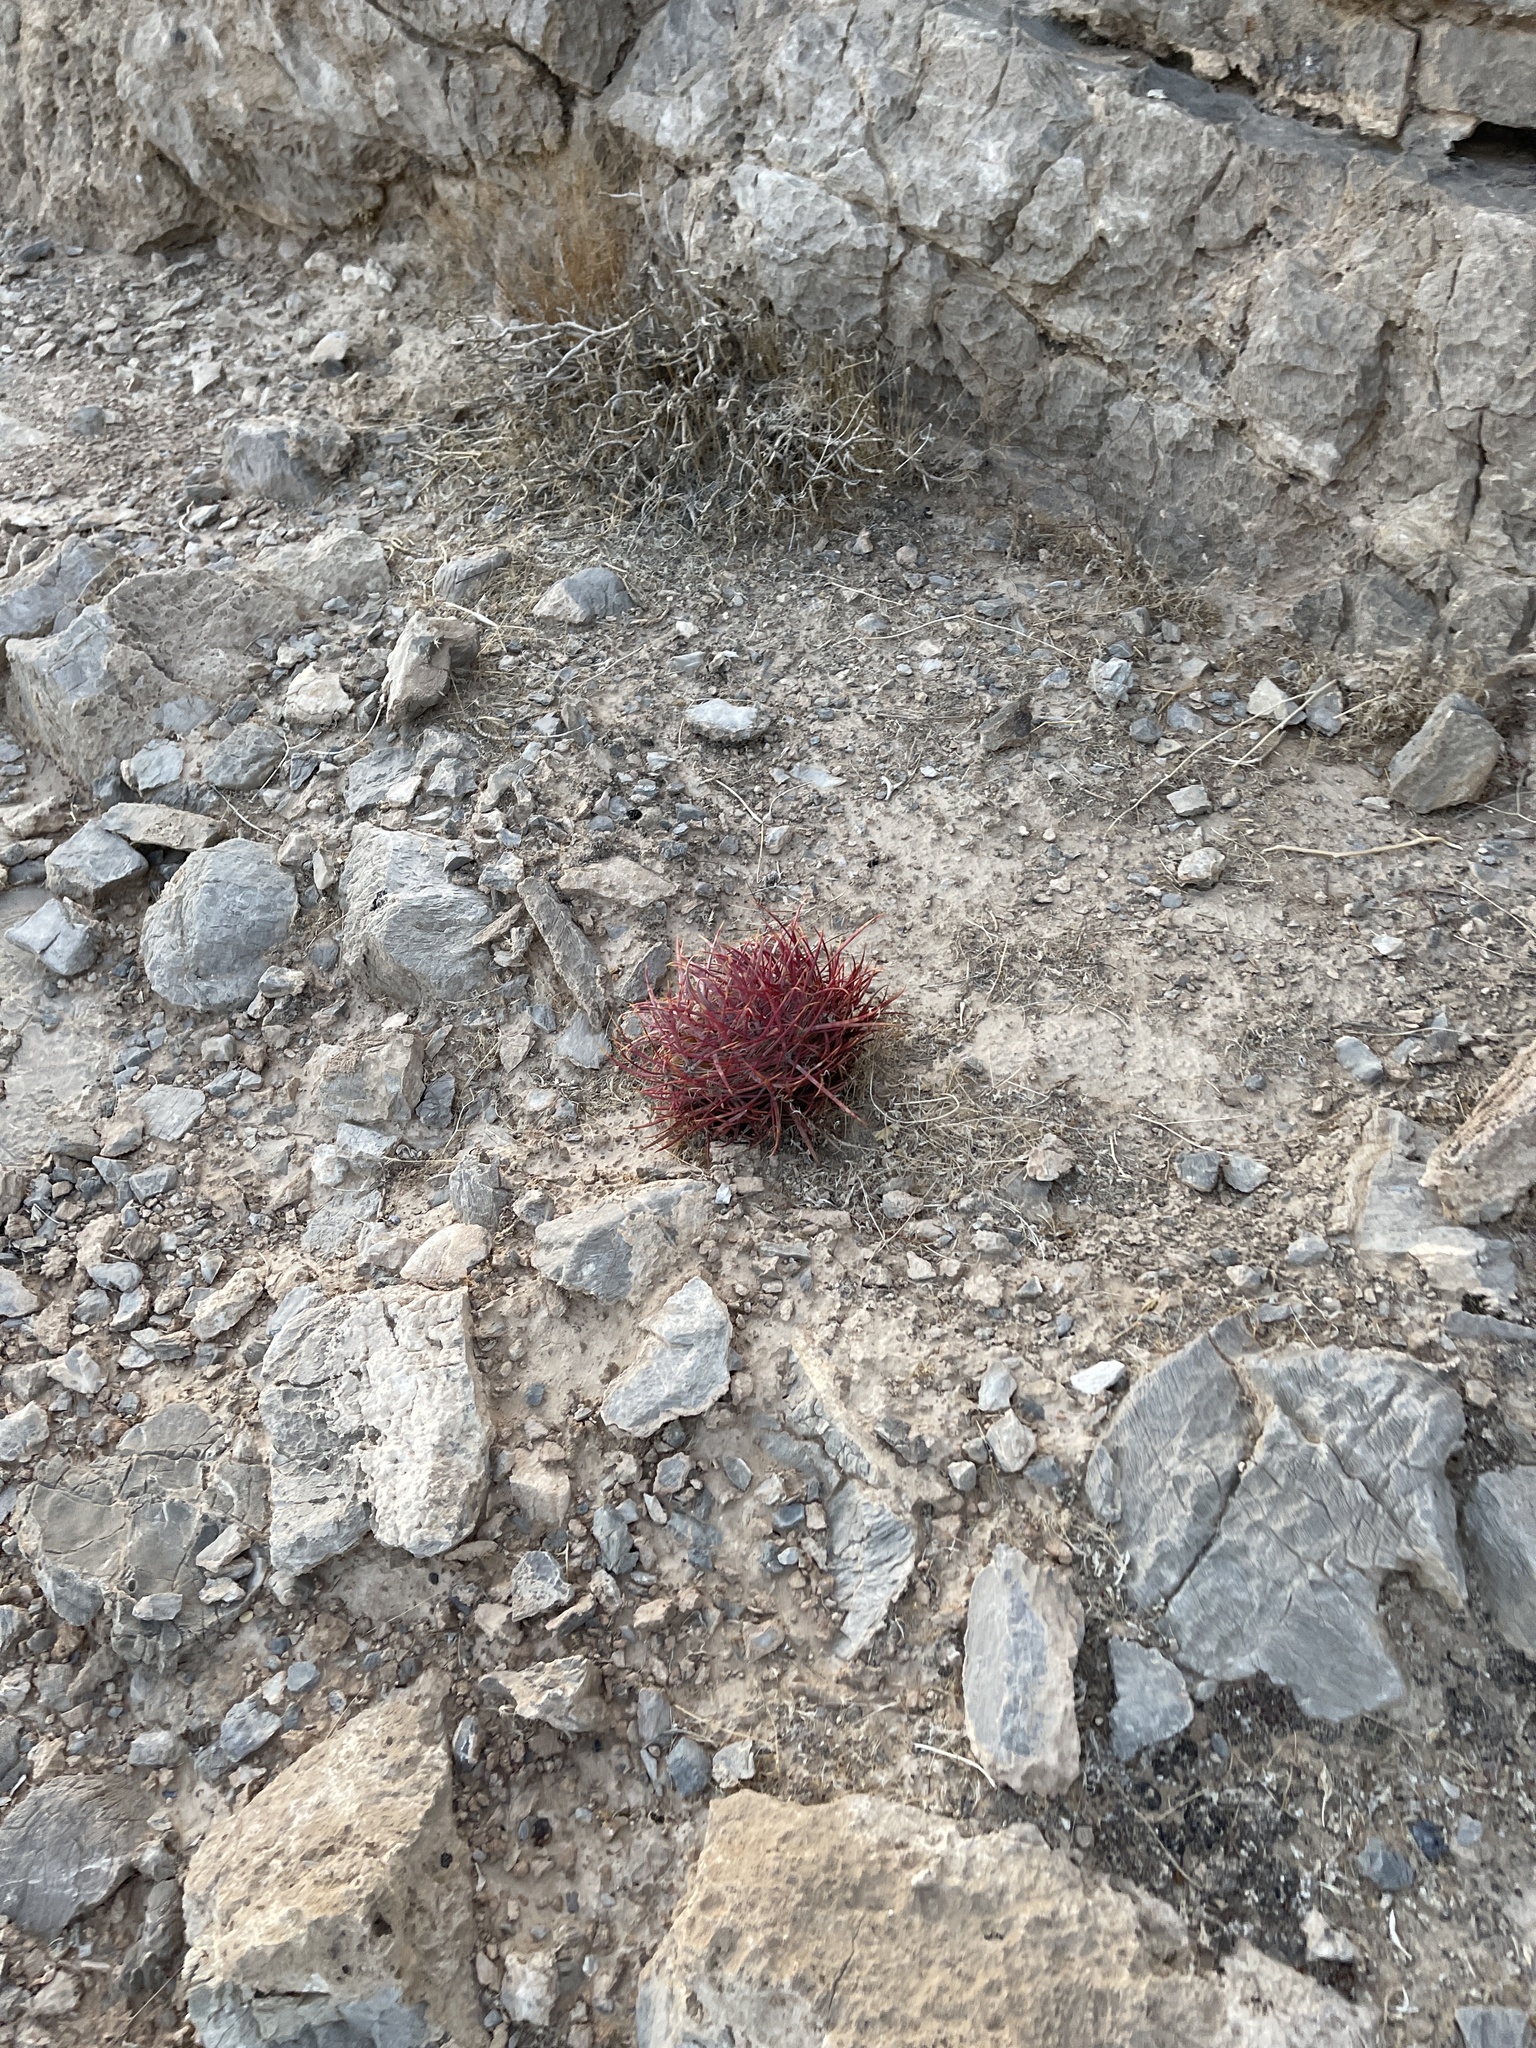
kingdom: Plantae
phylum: Tracheophyta
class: Magnoliopsida
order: Caryophyllales
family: Cactaceae
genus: Ferocactus
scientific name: Ferocactus cylindraceus
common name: California barrel cactus
